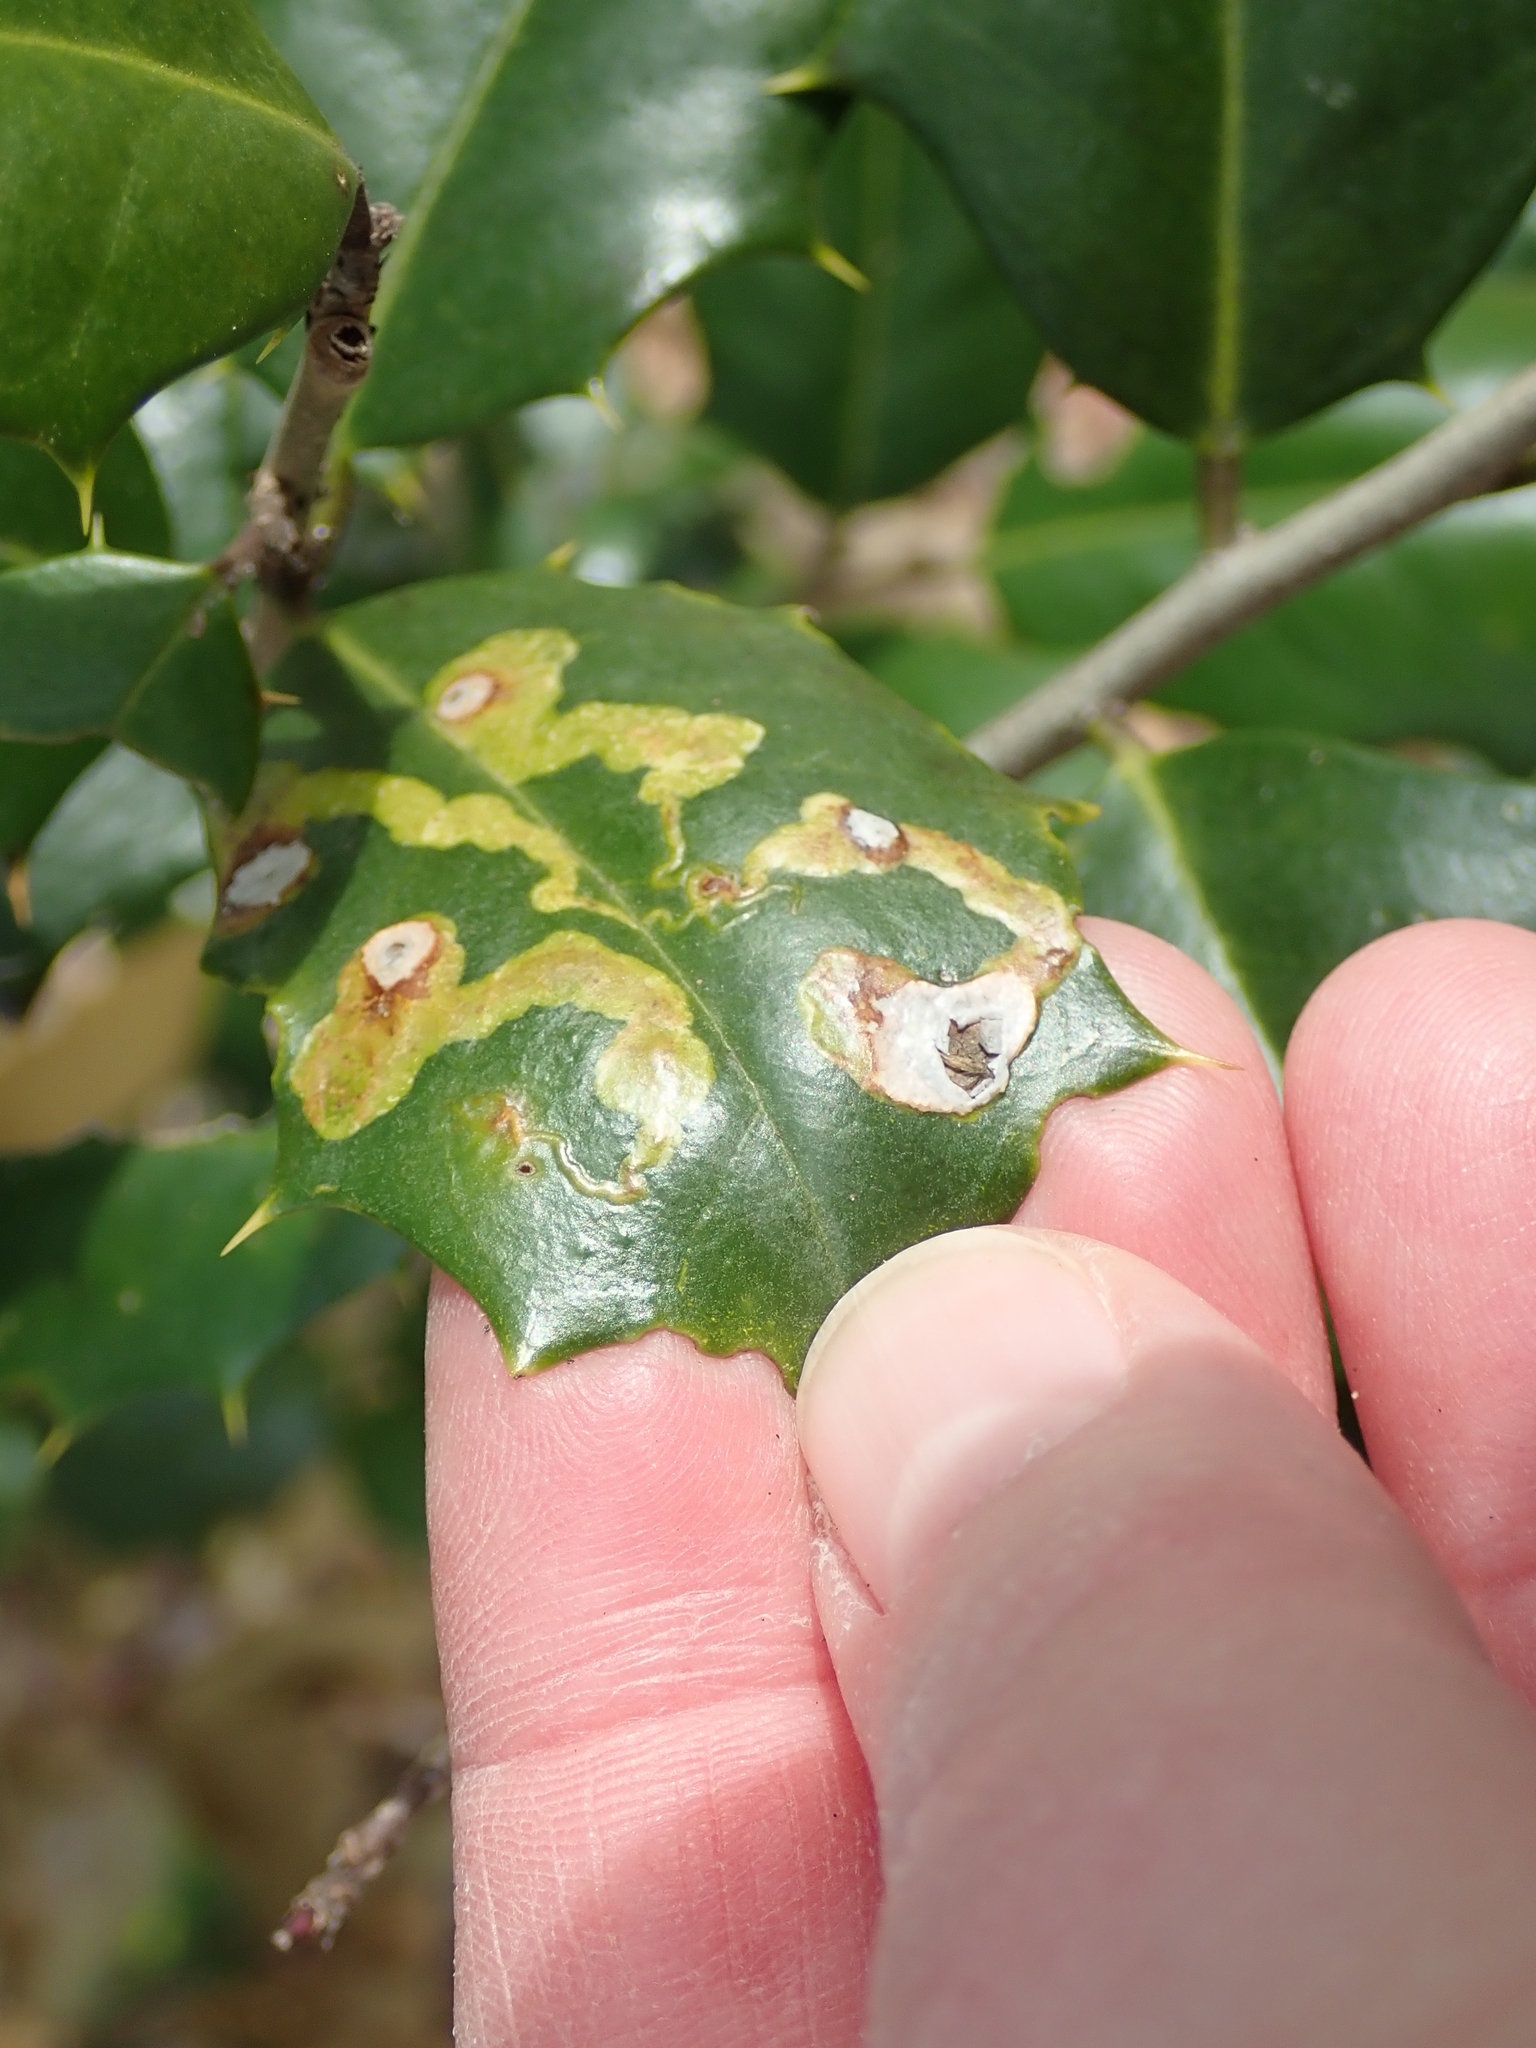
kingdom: Animalia
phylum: Arthropoda
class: Insecta
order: Diptera
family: Agromyzidae
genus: Phytomyza
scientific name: Phytomyza ilicicola
